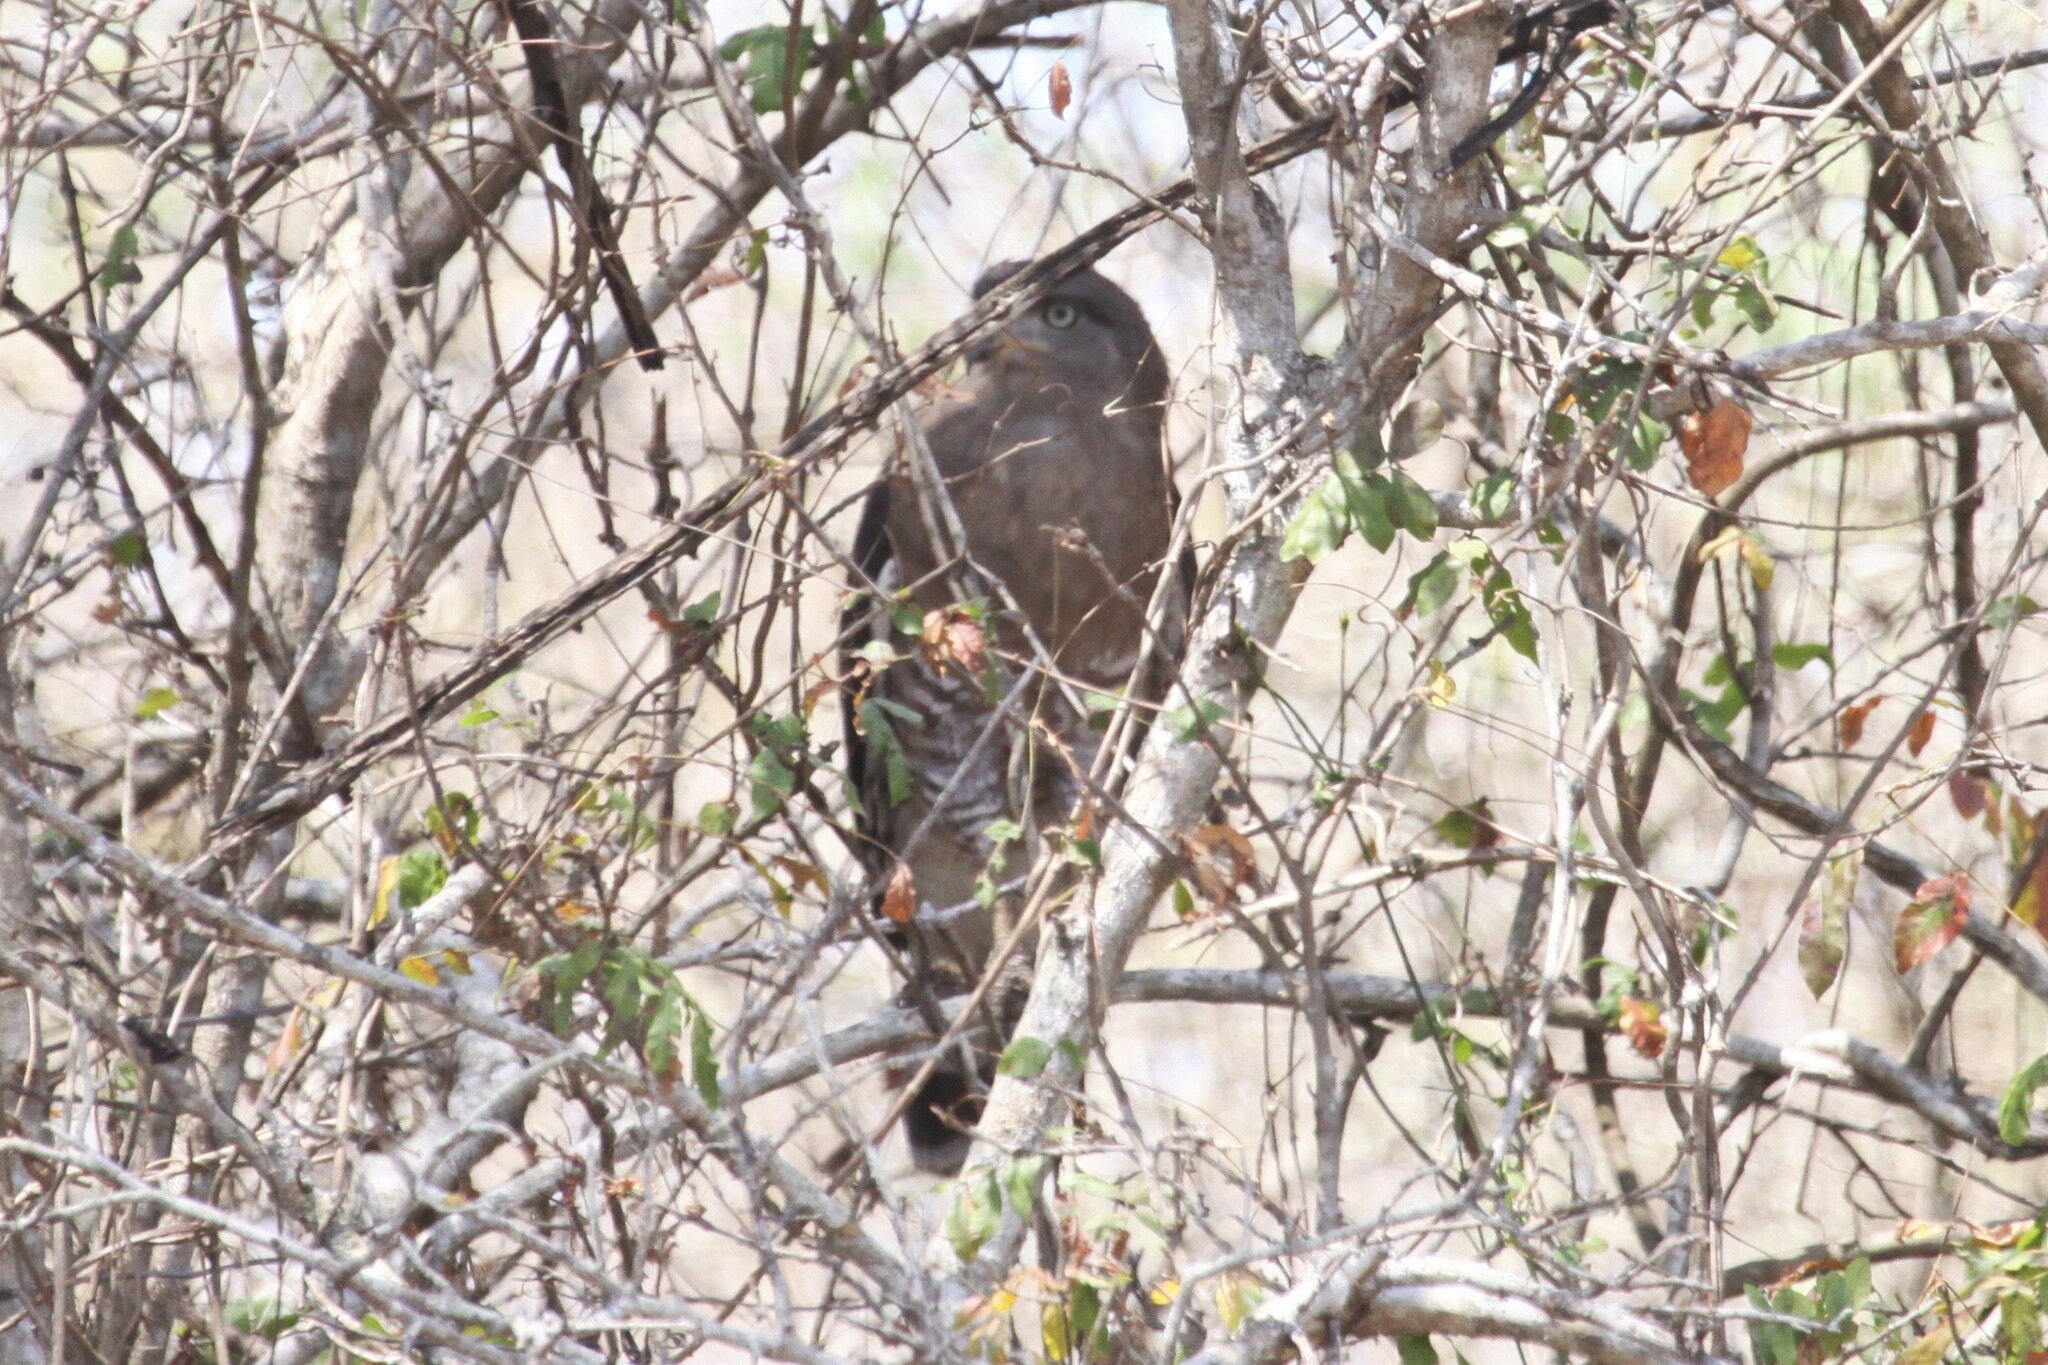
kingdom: Animalia
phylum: Chordata
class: Aves
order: Accipitriformes
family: Accipitridae
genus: Circaetus
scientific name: Circaetus cinerascens
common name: Western banded snake eagle
